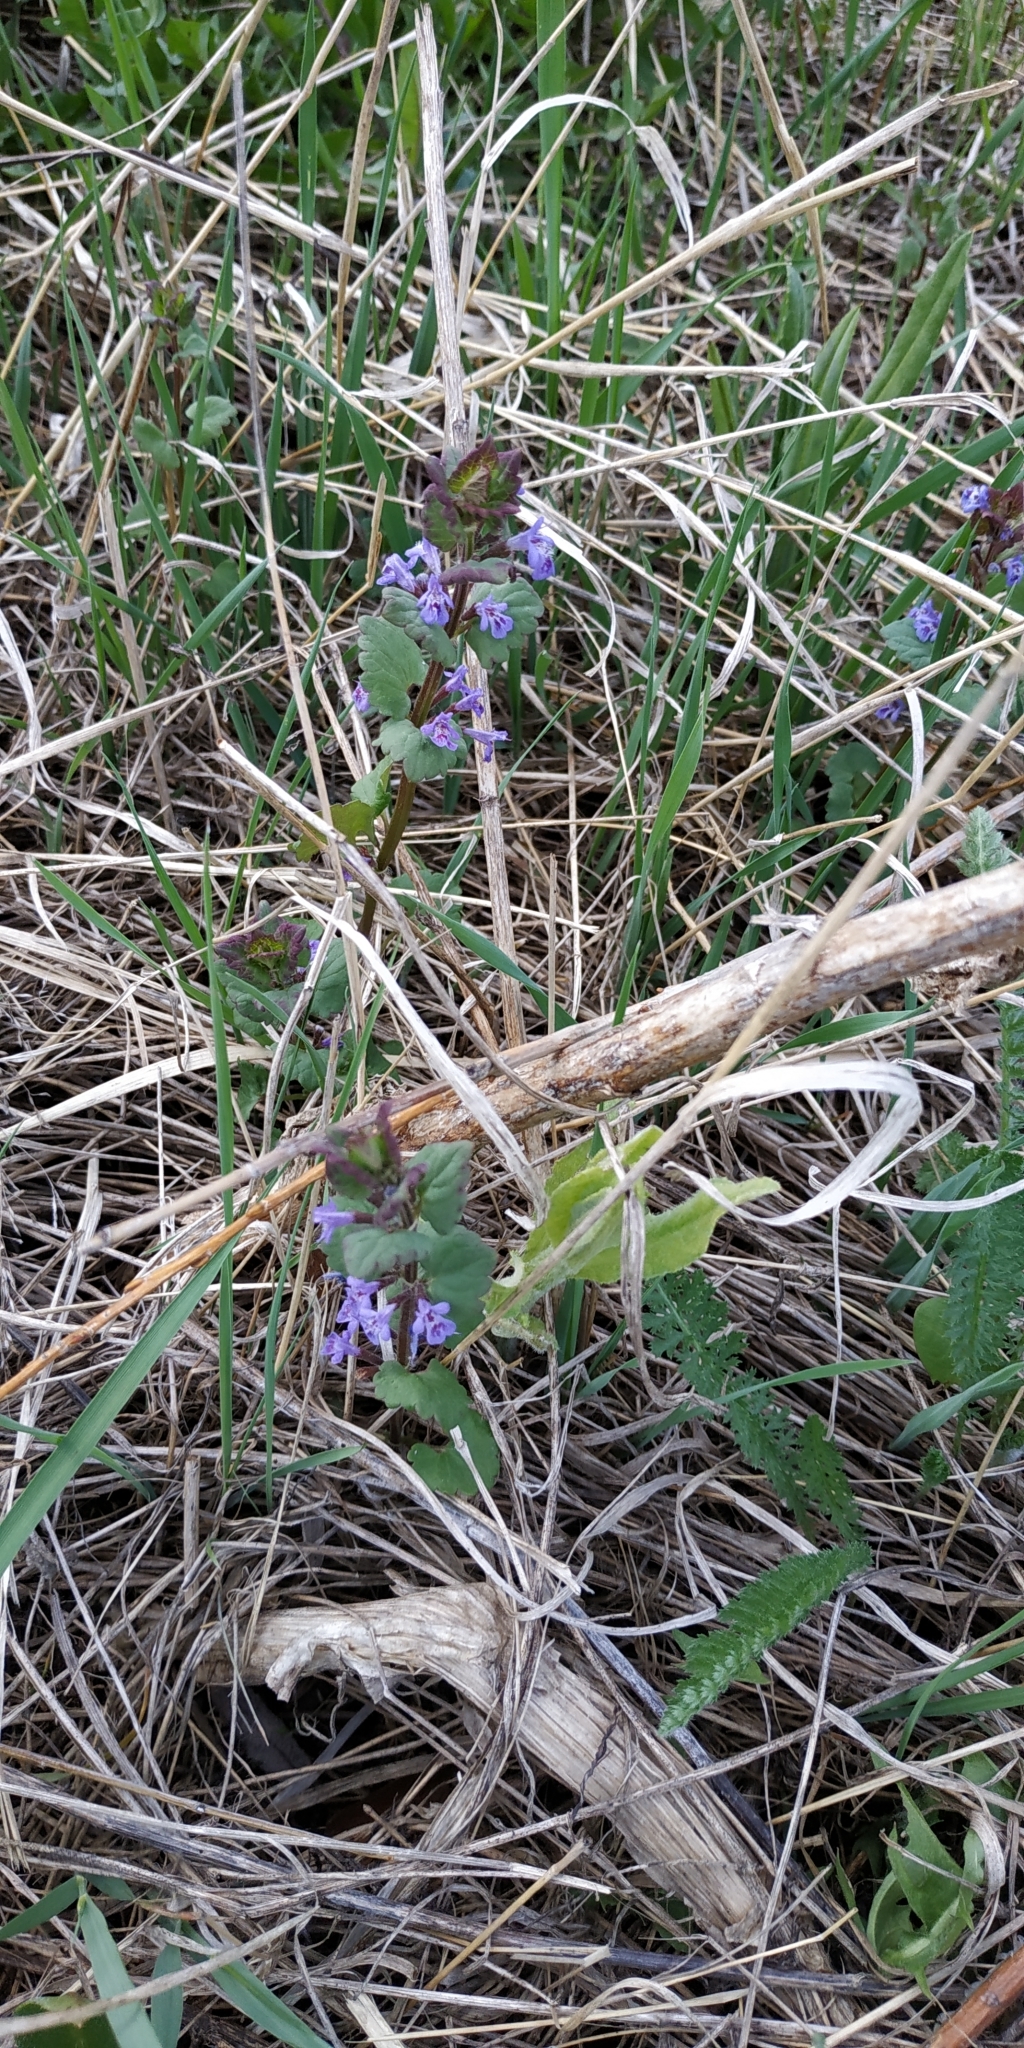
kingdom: Plantae
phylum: Tracheophyta
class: Magnoliopsida
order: Lamiales
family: Lamiaceae
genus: Glechoma
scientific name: Glechoma hederacea
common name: Ground ivy
